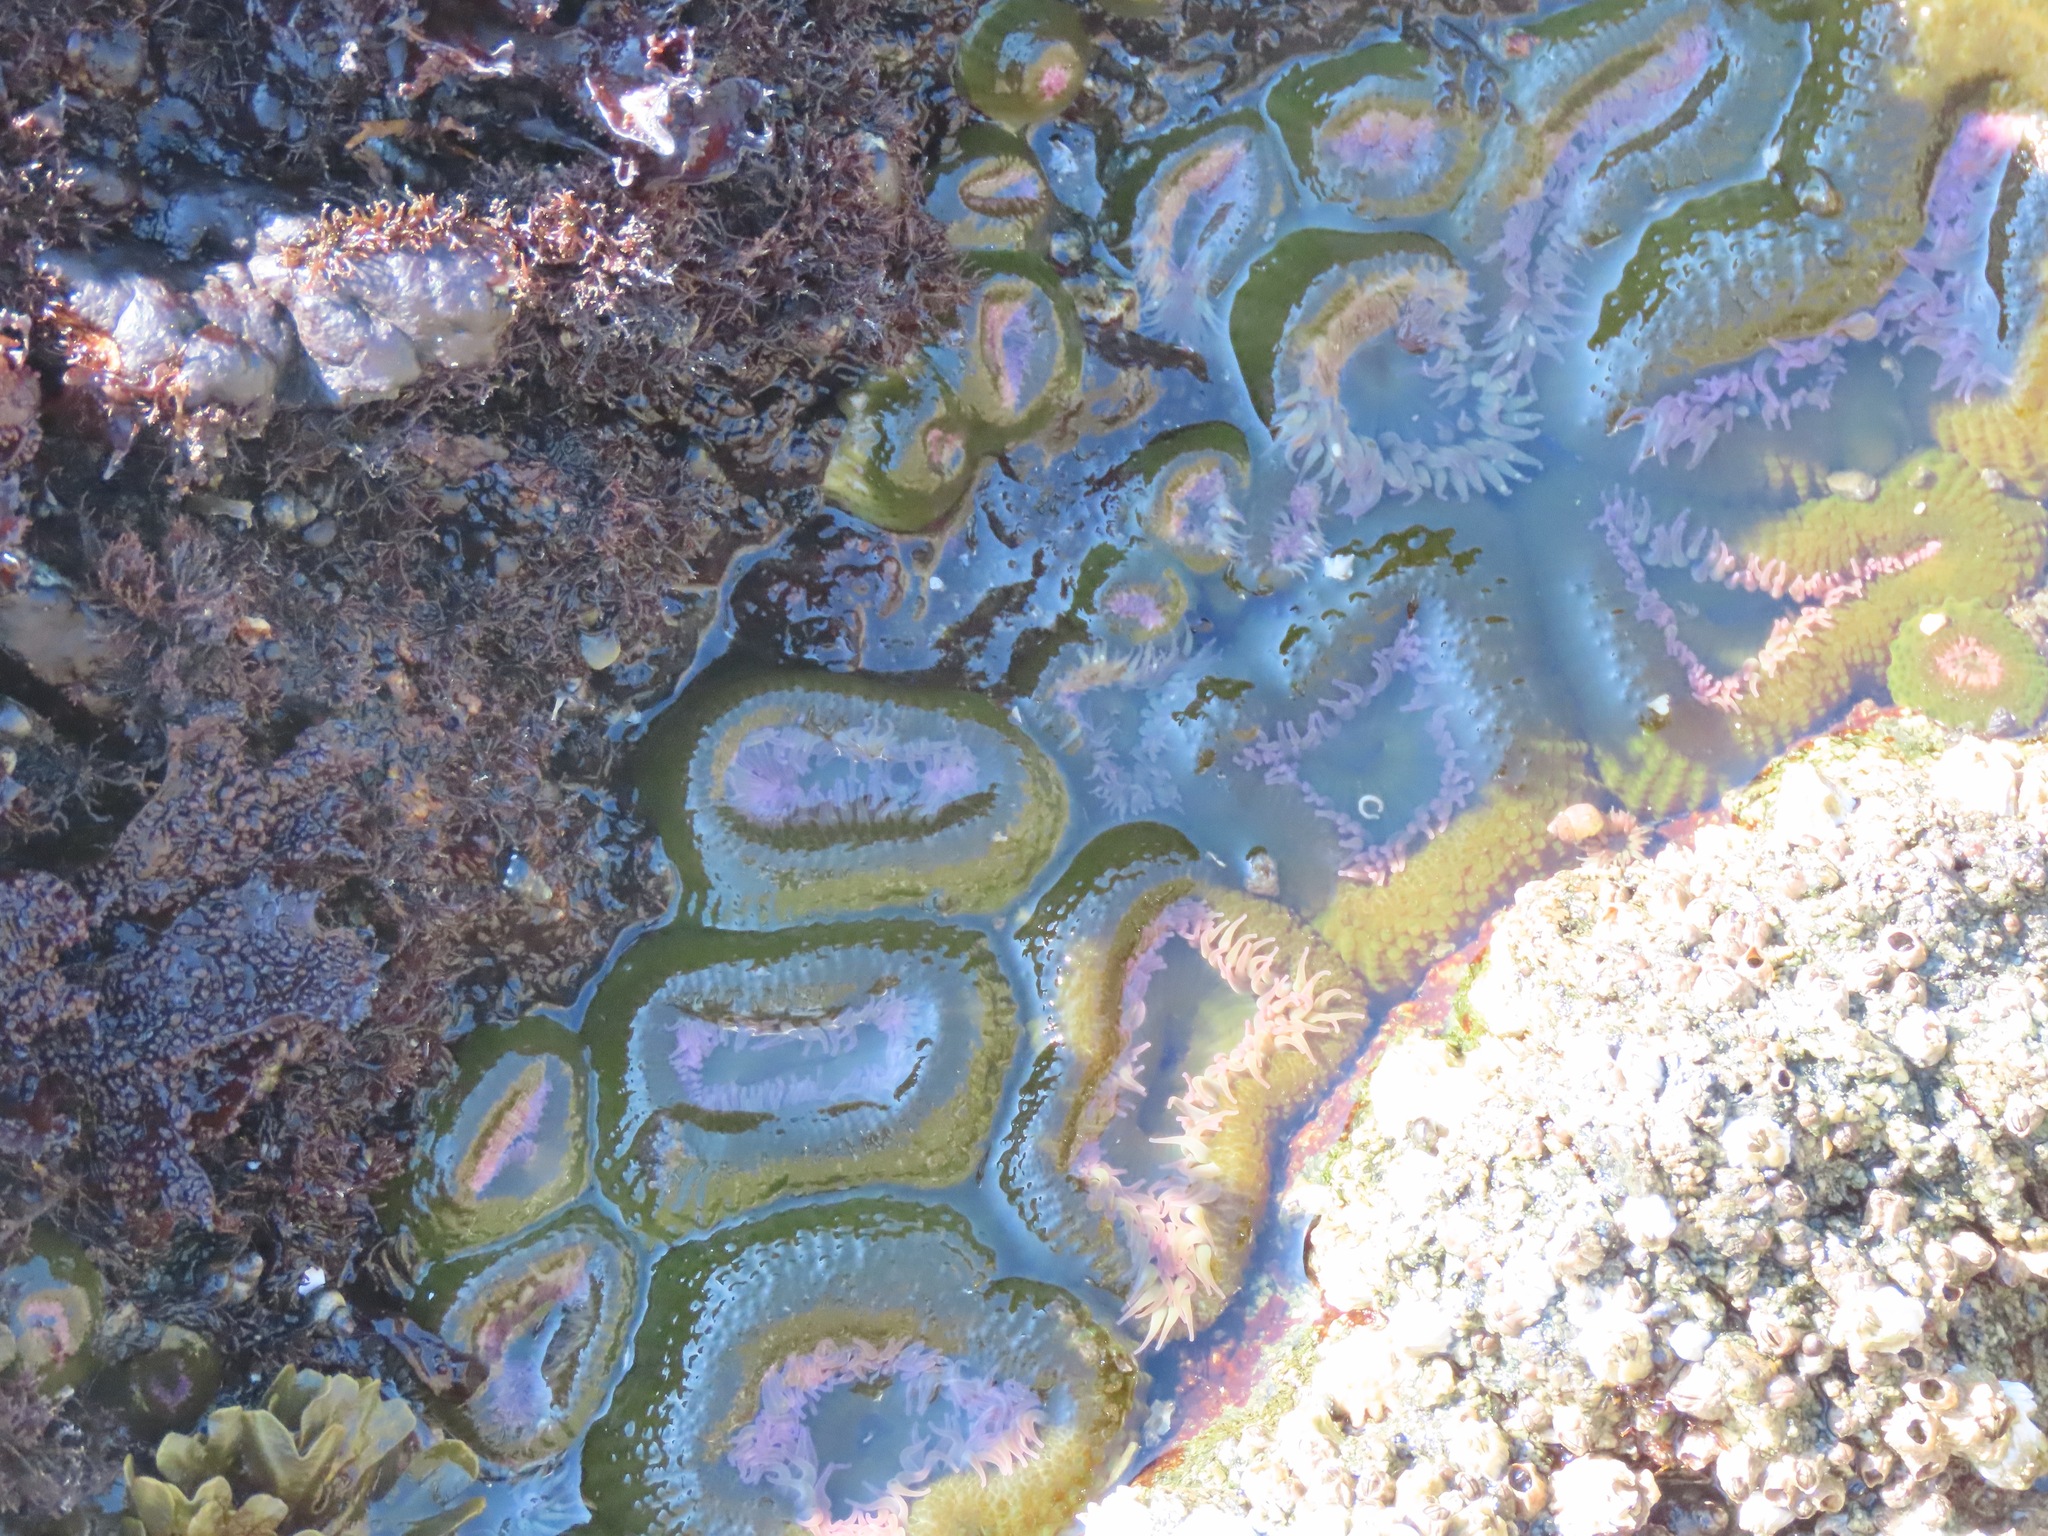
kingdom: Animalia
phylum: Cnidaria
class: Anthozoa
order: Actiniaria
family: Actiniidae
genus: Anthopleura
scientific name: Anthopleura elegantissima
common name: Clonal anemone
